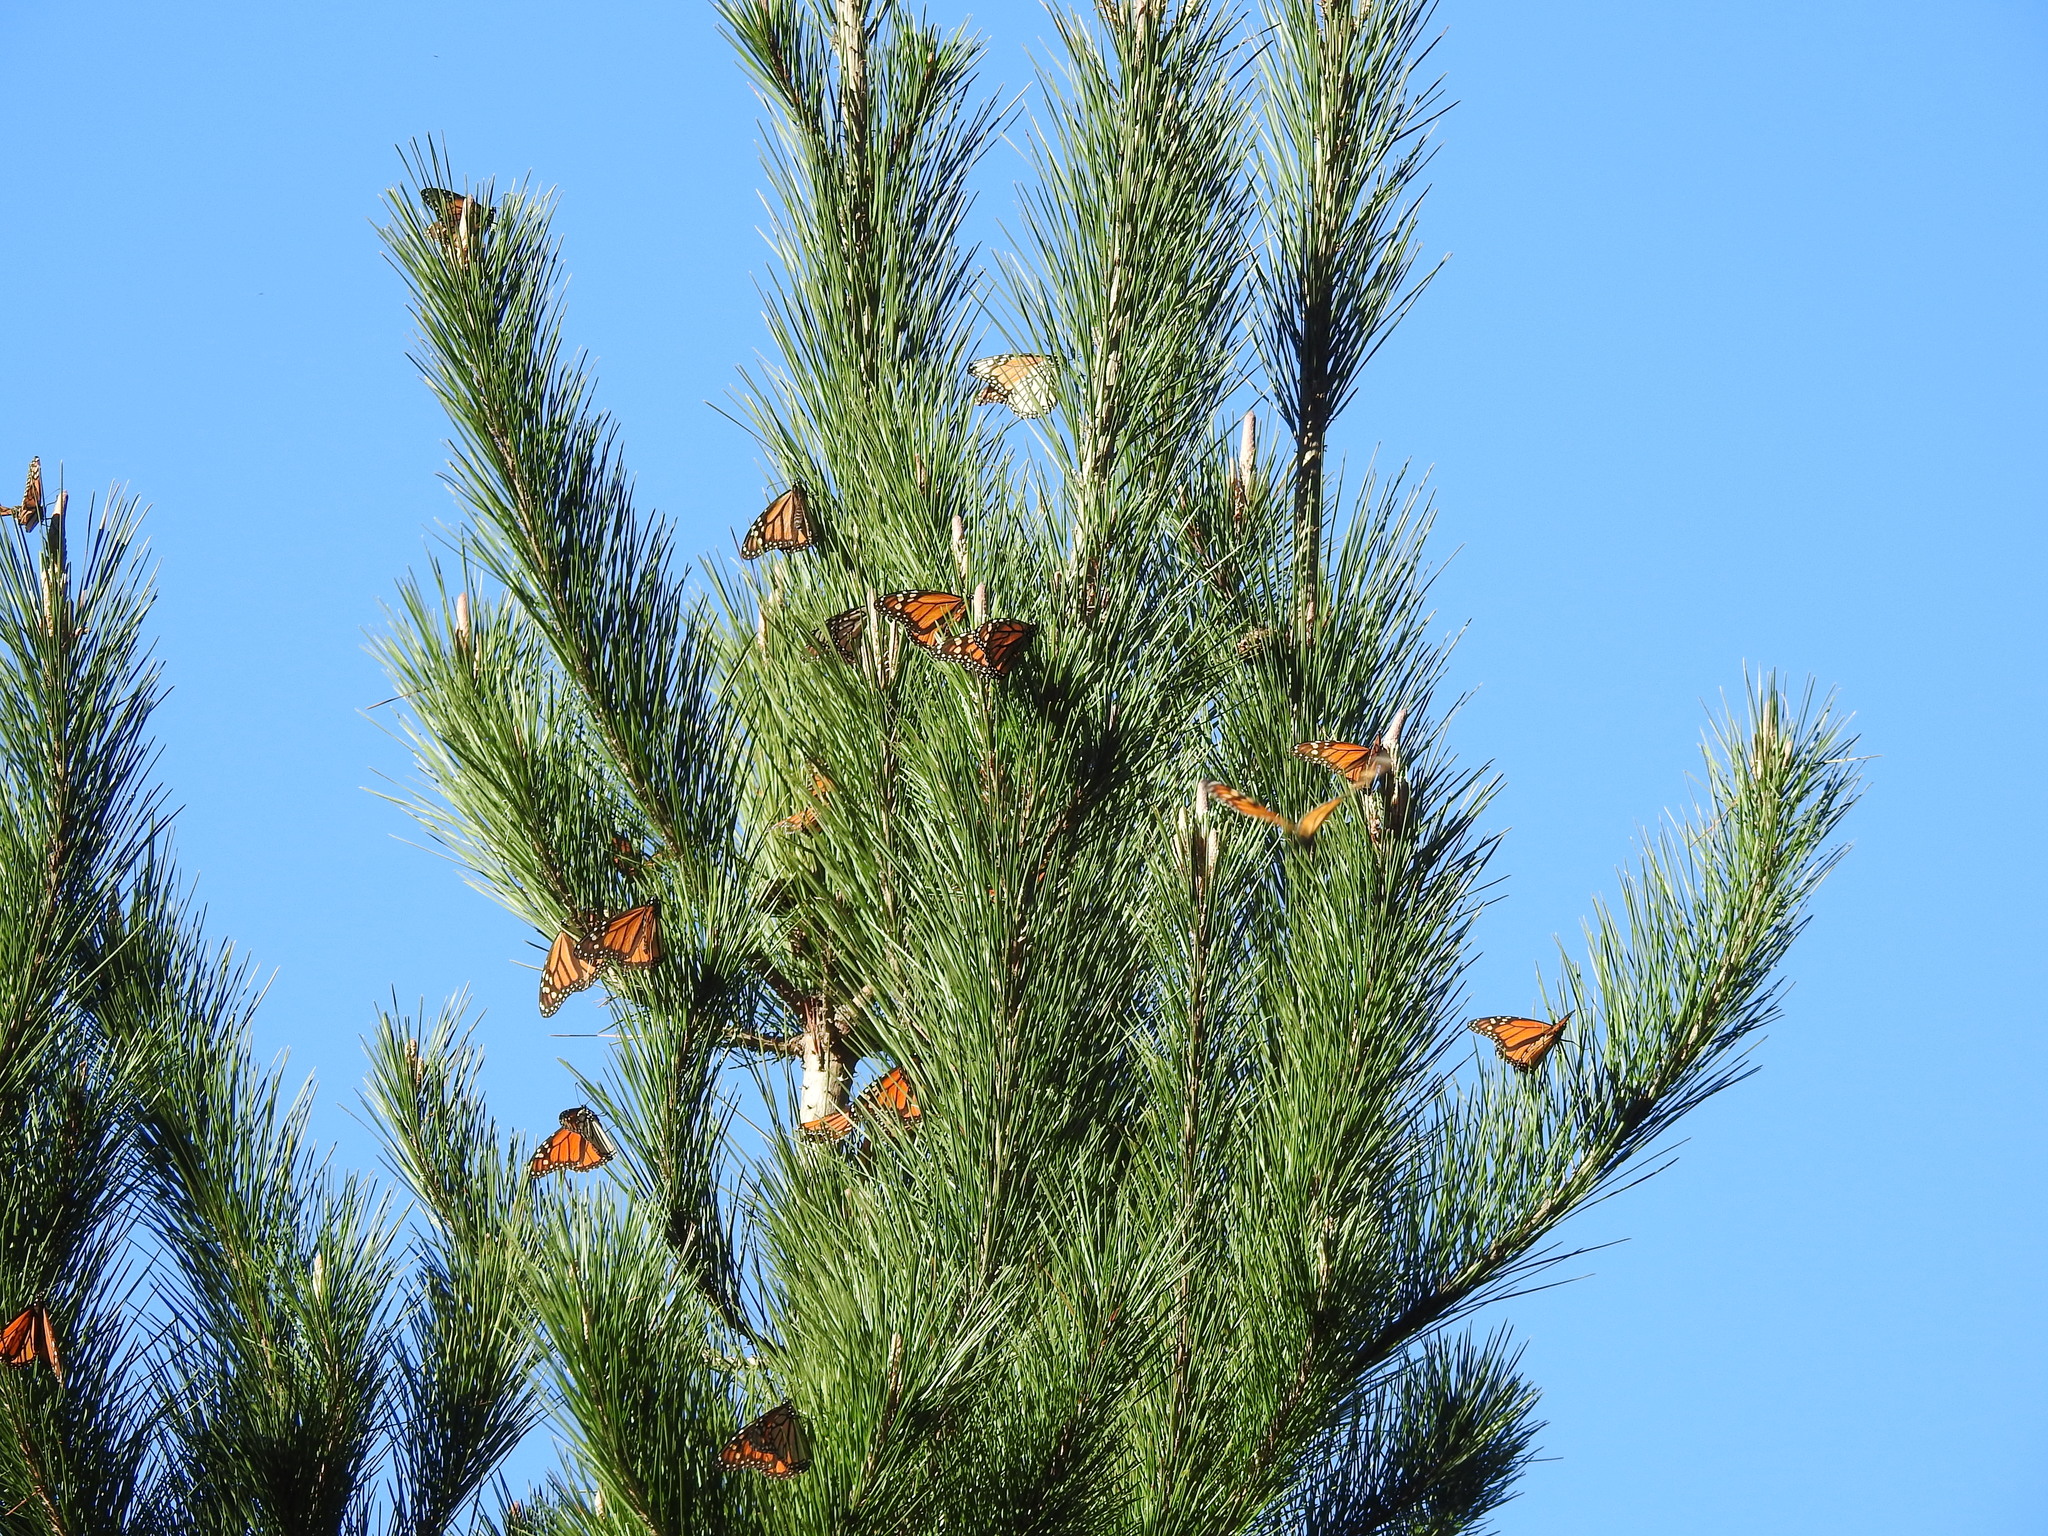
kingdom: Animalia
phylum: Arthropoda
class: Insecta
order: Lepidoptera
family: Nymphalidae
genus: Danaus
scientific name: Danaus plexippus
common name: Monarch
